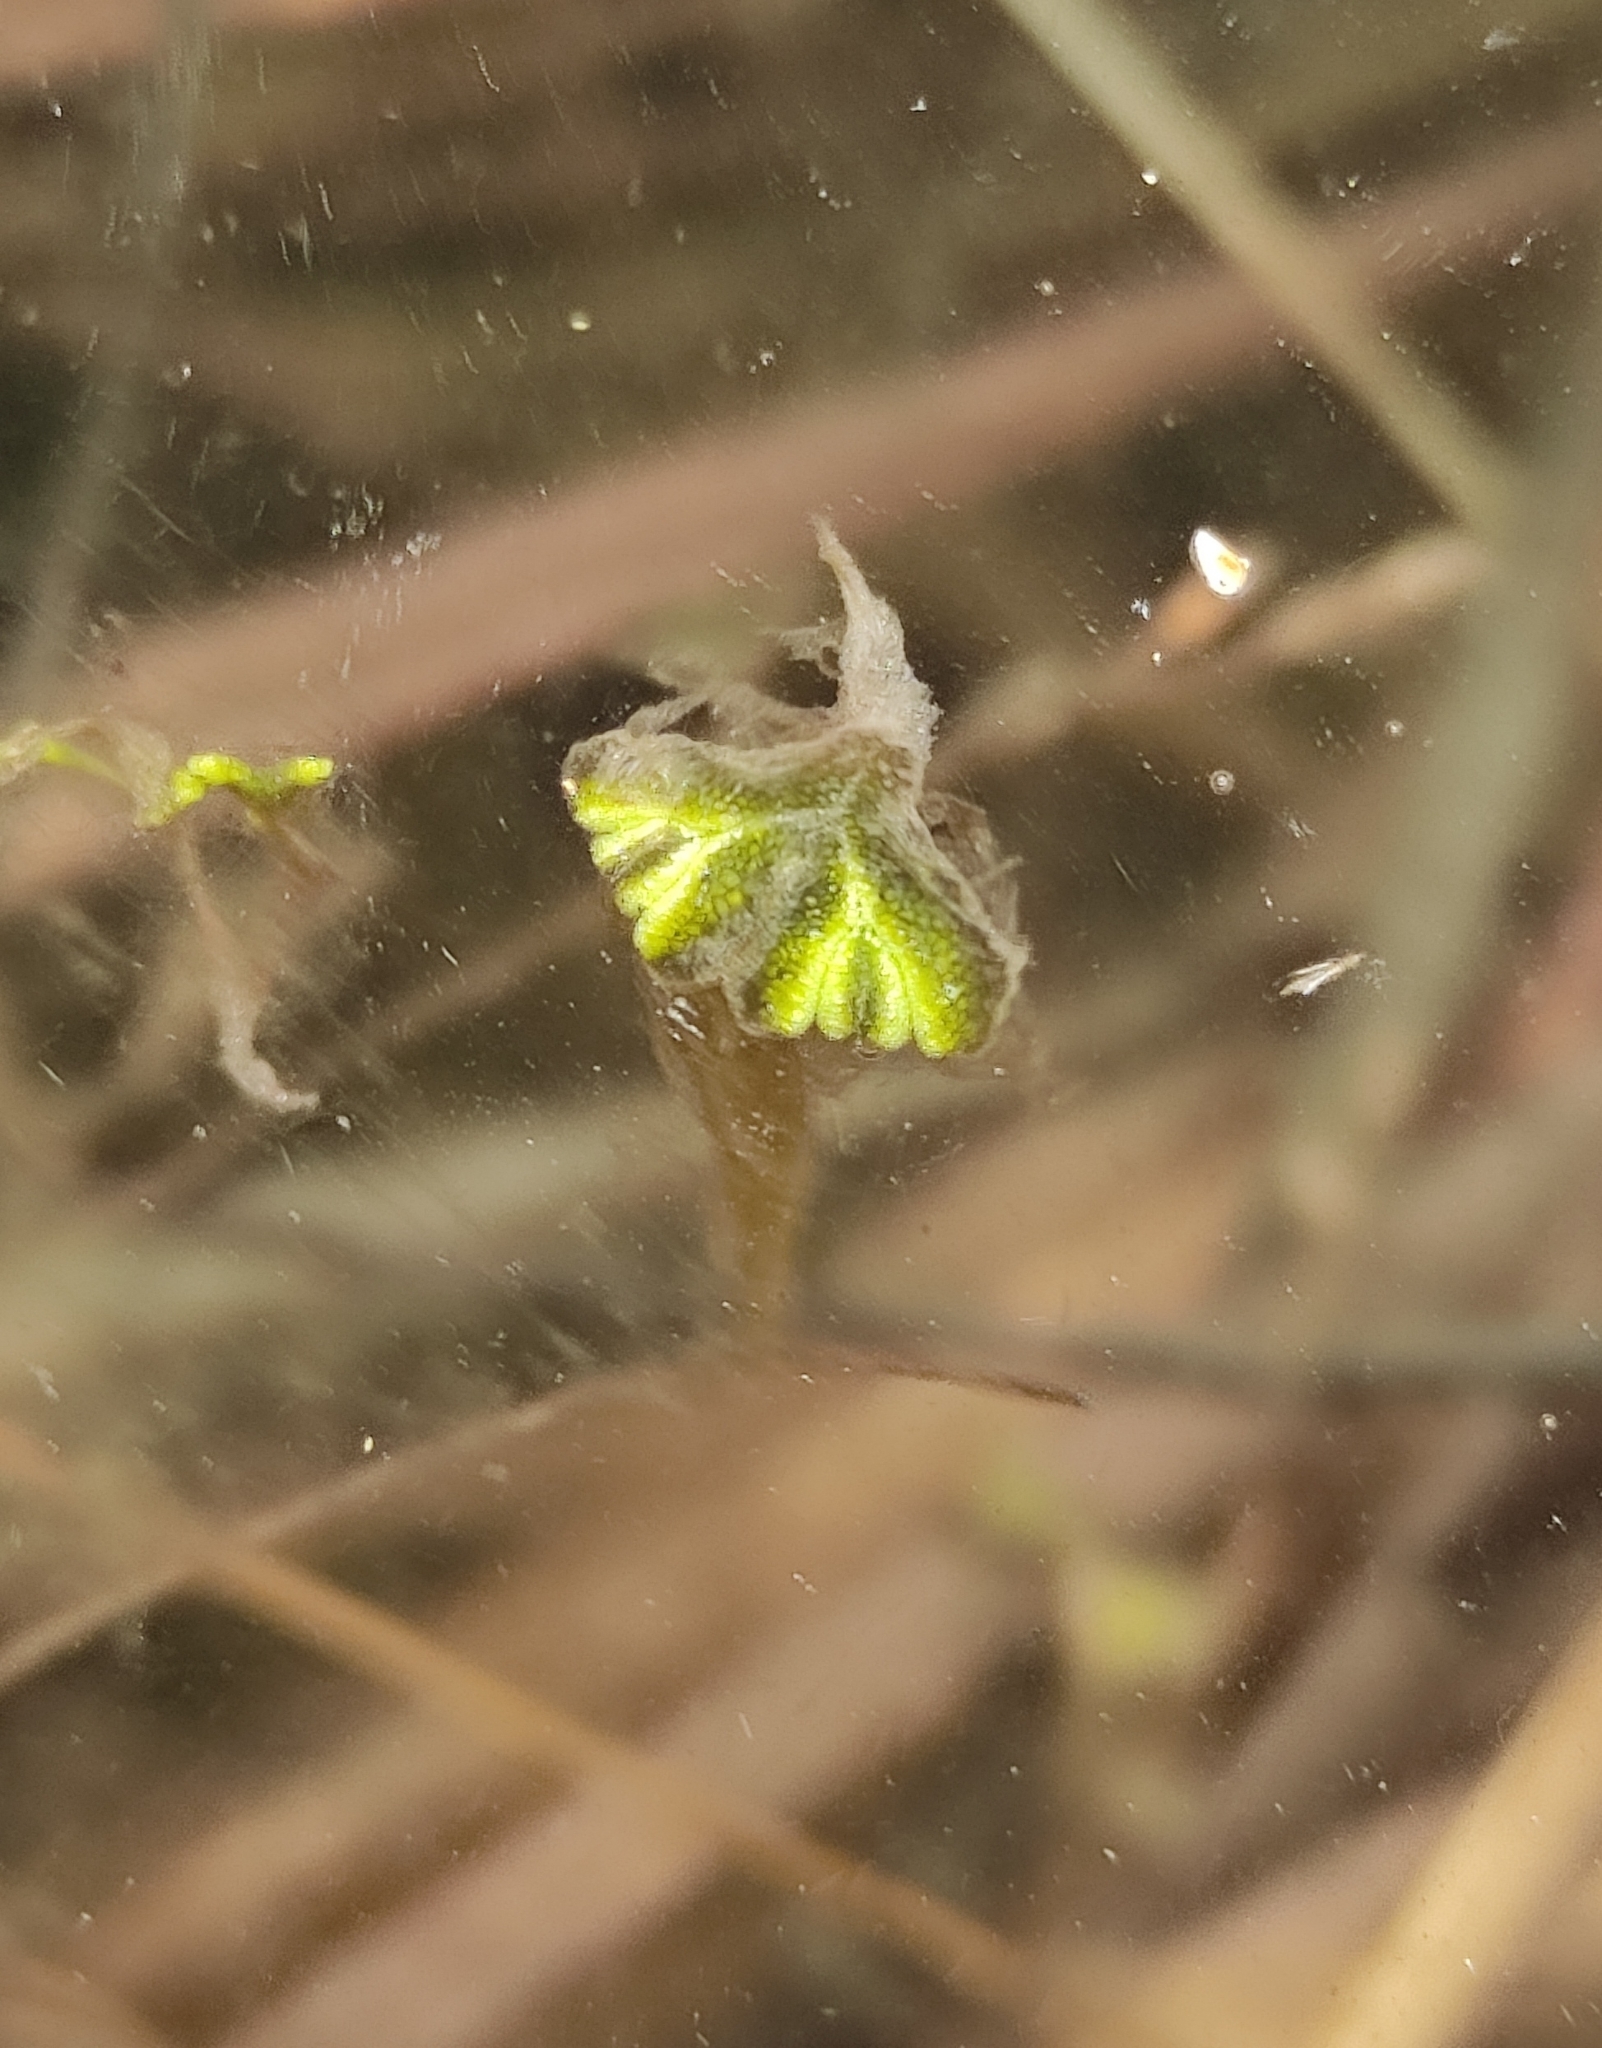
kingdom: Plantae
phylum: Marchantiophyta
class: Marchantiopsida
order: Marchantiales
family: Ricciaceae
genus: Ricciocarpos
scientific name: Ricciocarpos natans
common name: Purple-fringed liverwort
